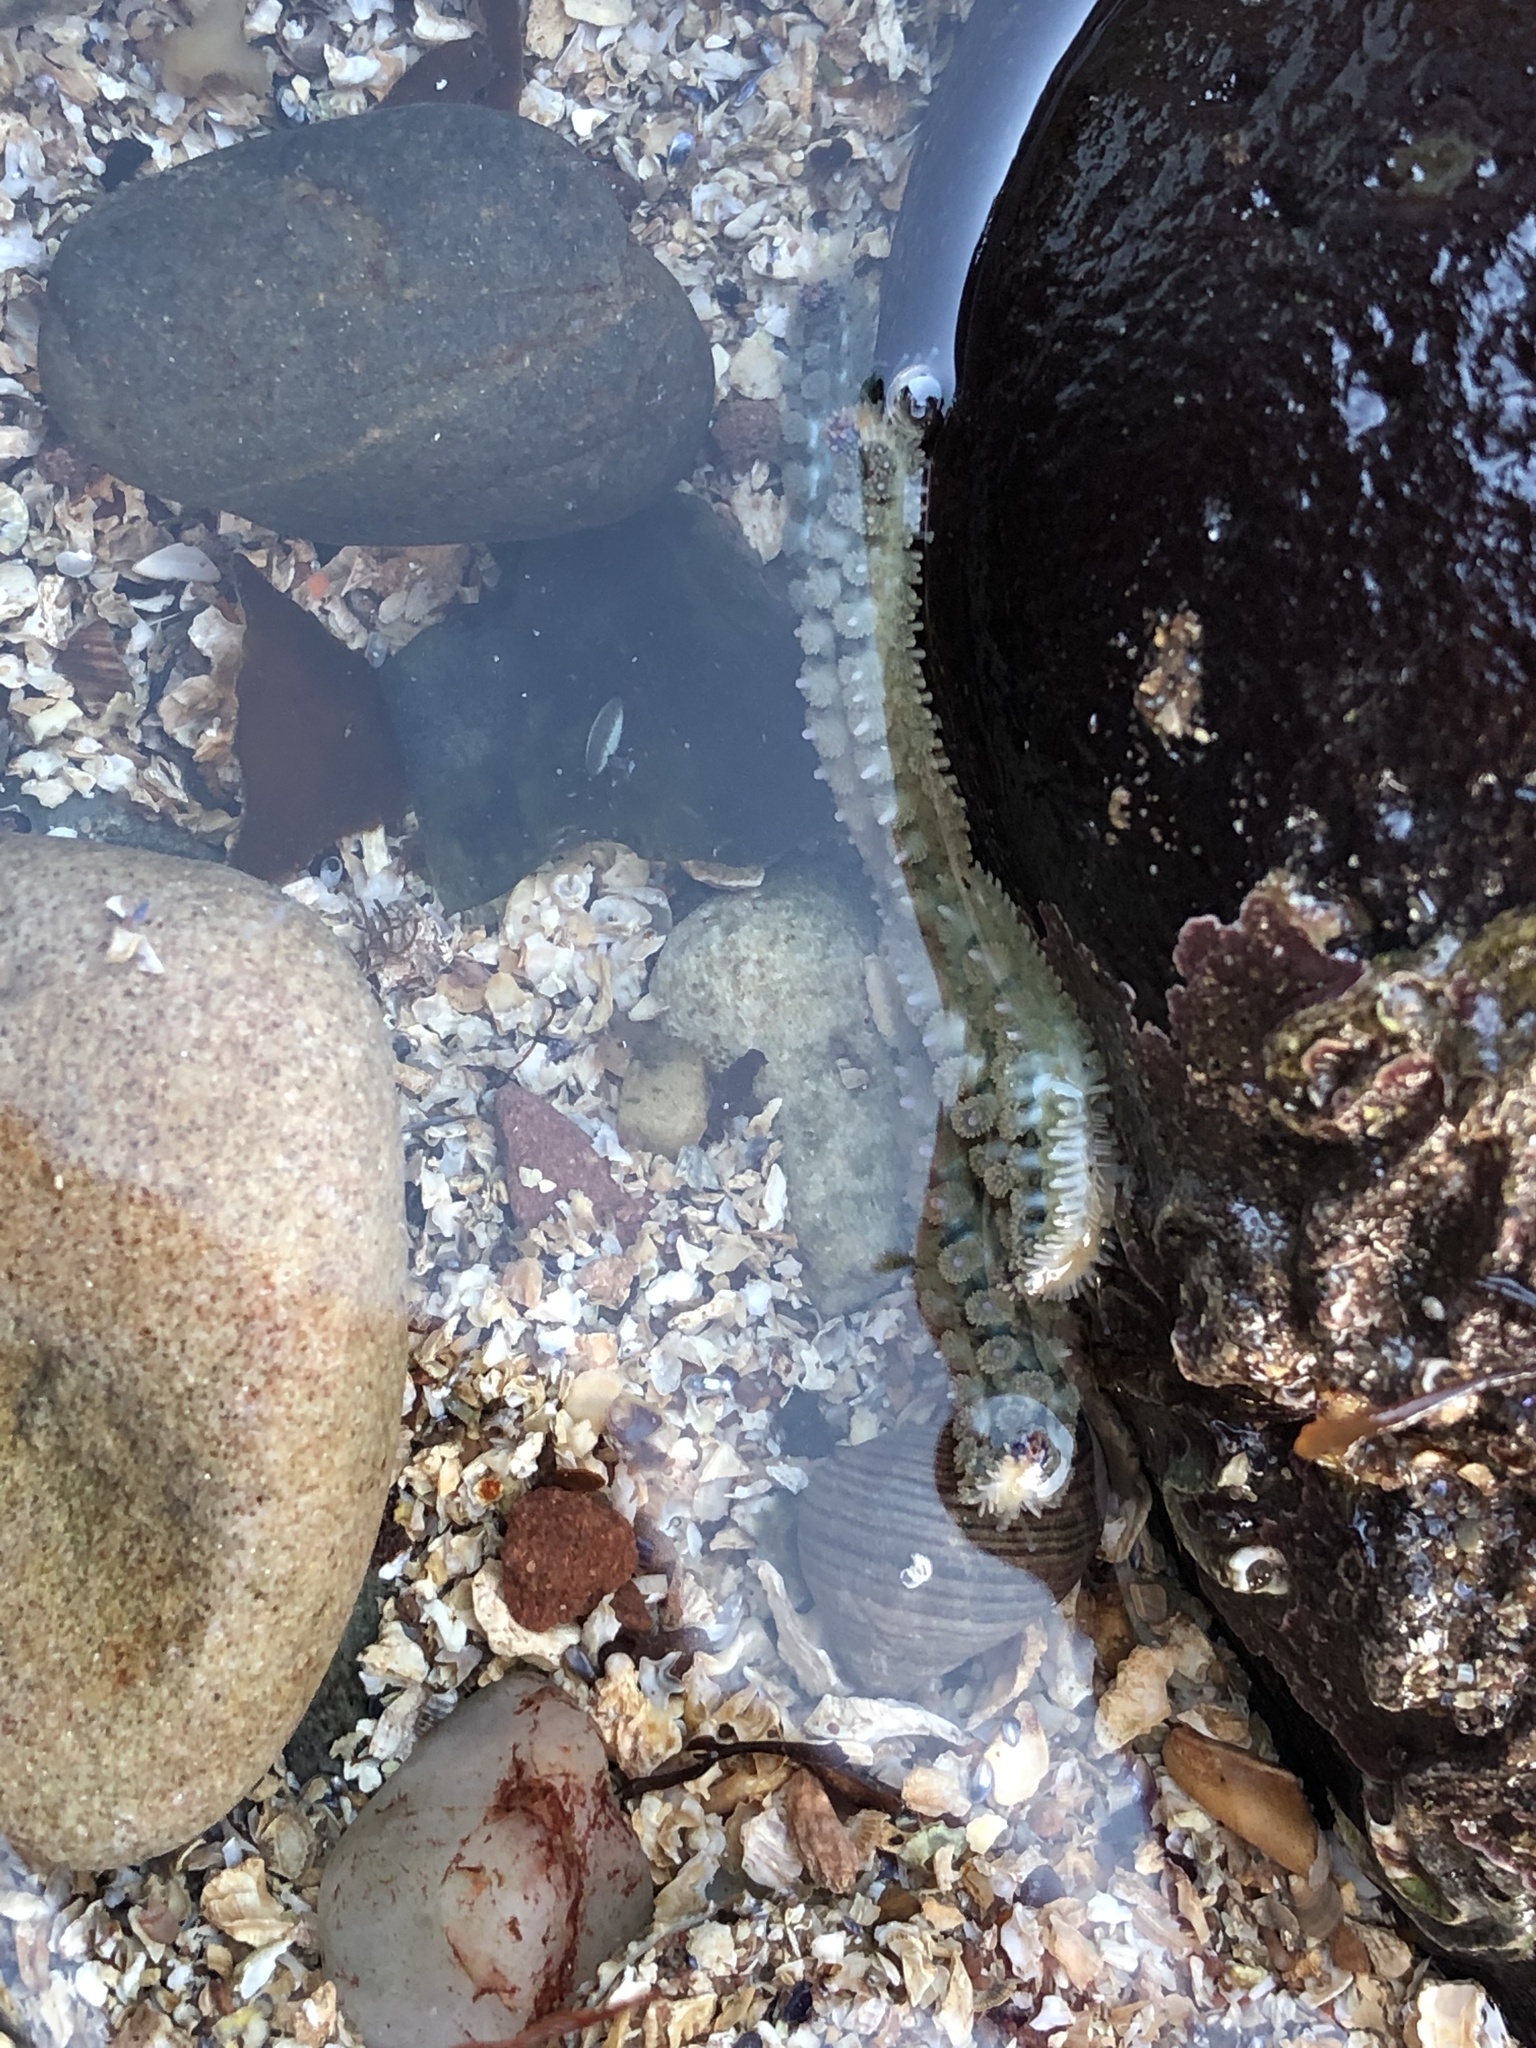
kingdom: Animalia
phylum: Echinodermata
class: Asteroidea
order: Forcipulatida
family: Asteriidae
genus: Marthasterias
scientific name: Marthasterias glacialis
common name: Spiny starfish
